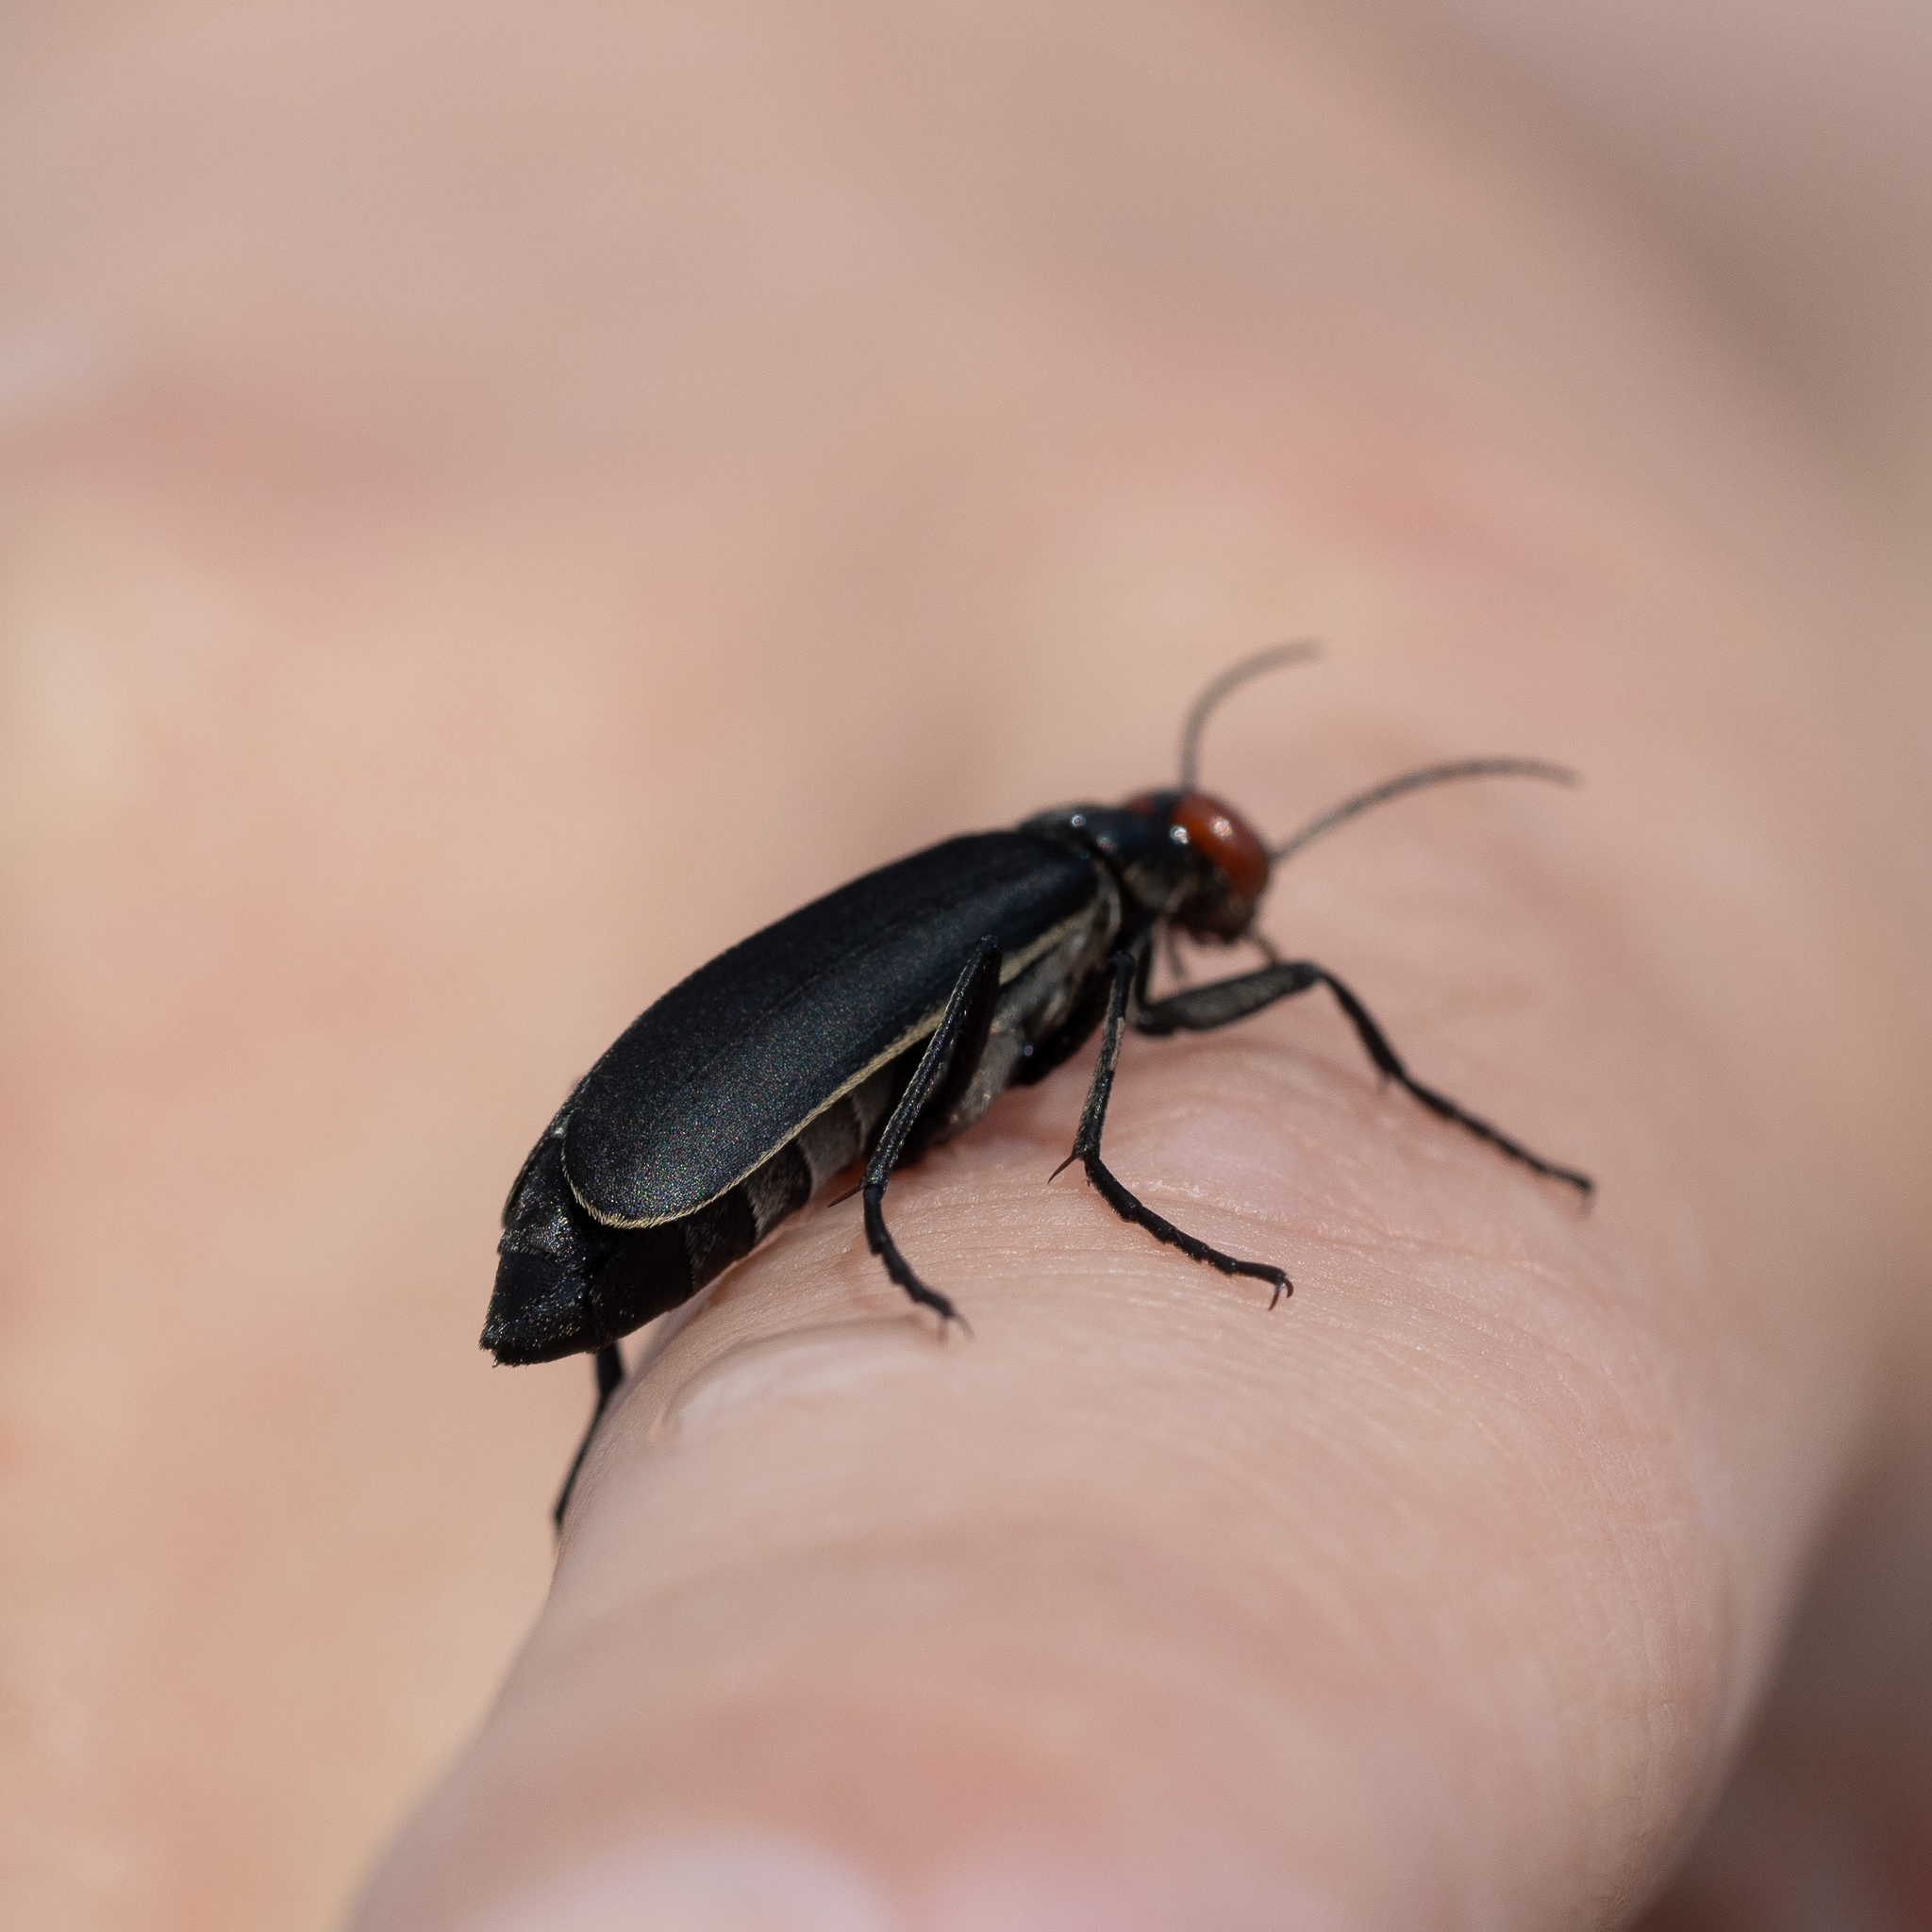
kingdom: Animalia
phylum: Arthropoda
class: Insecta
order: Coleoptera
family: Meloidae
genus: Epicauta
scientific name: Epicauta rufidorsum
